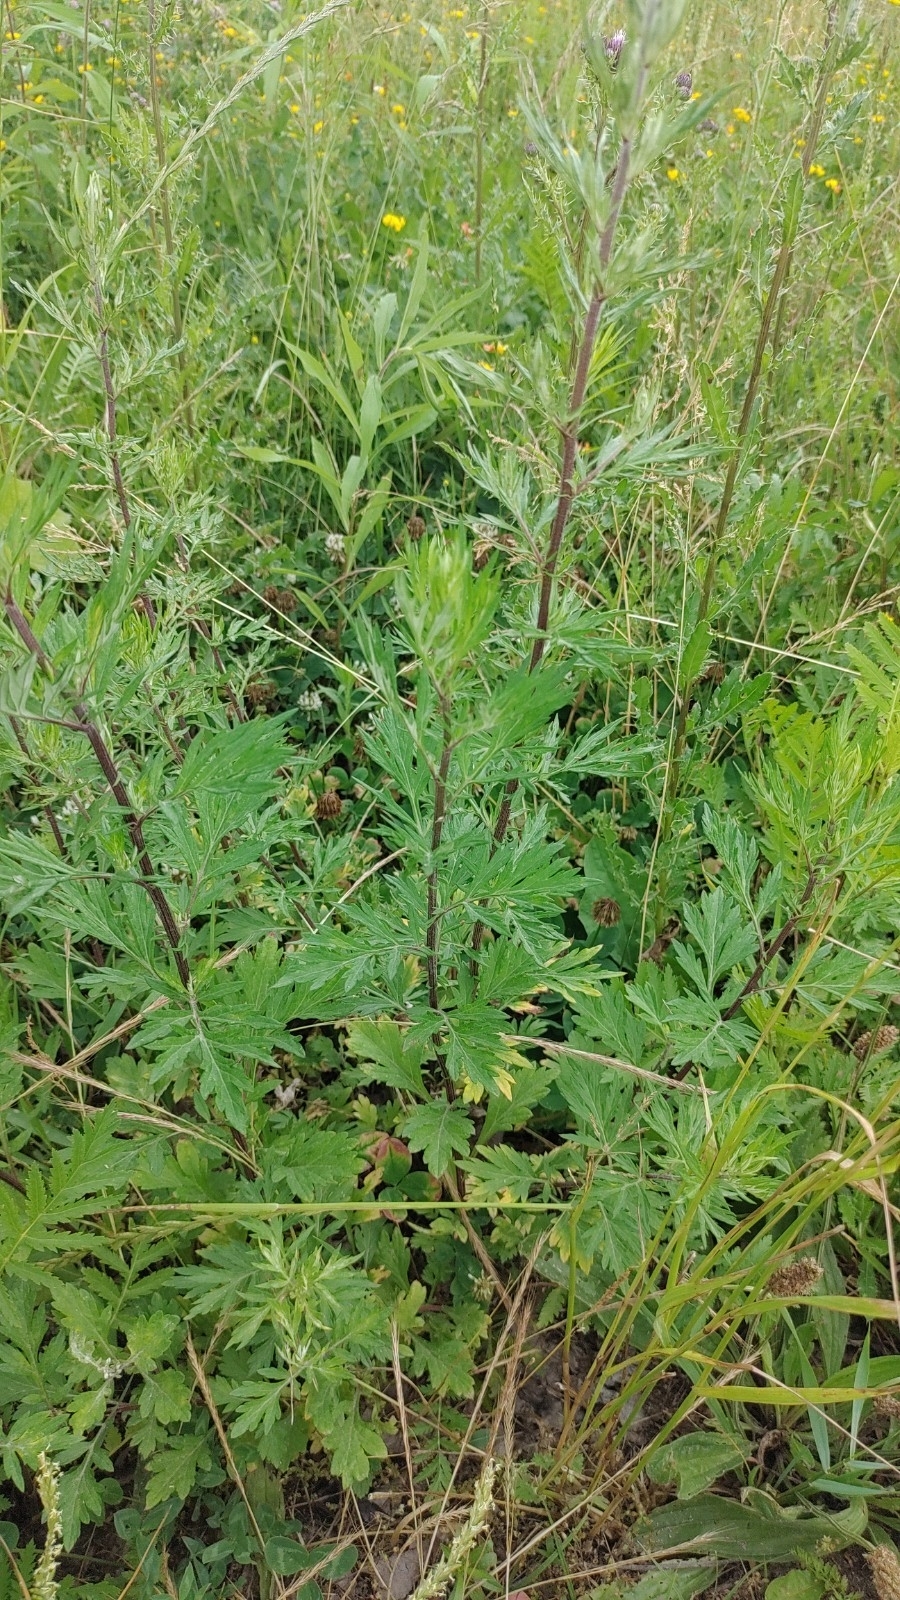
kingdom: Plantae
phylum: Tracheophyta
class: Magnoliopsida
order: Asterales
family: Asteraceae
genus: Artemisia
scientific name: Artemisia vulgaris
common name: Mugwort
